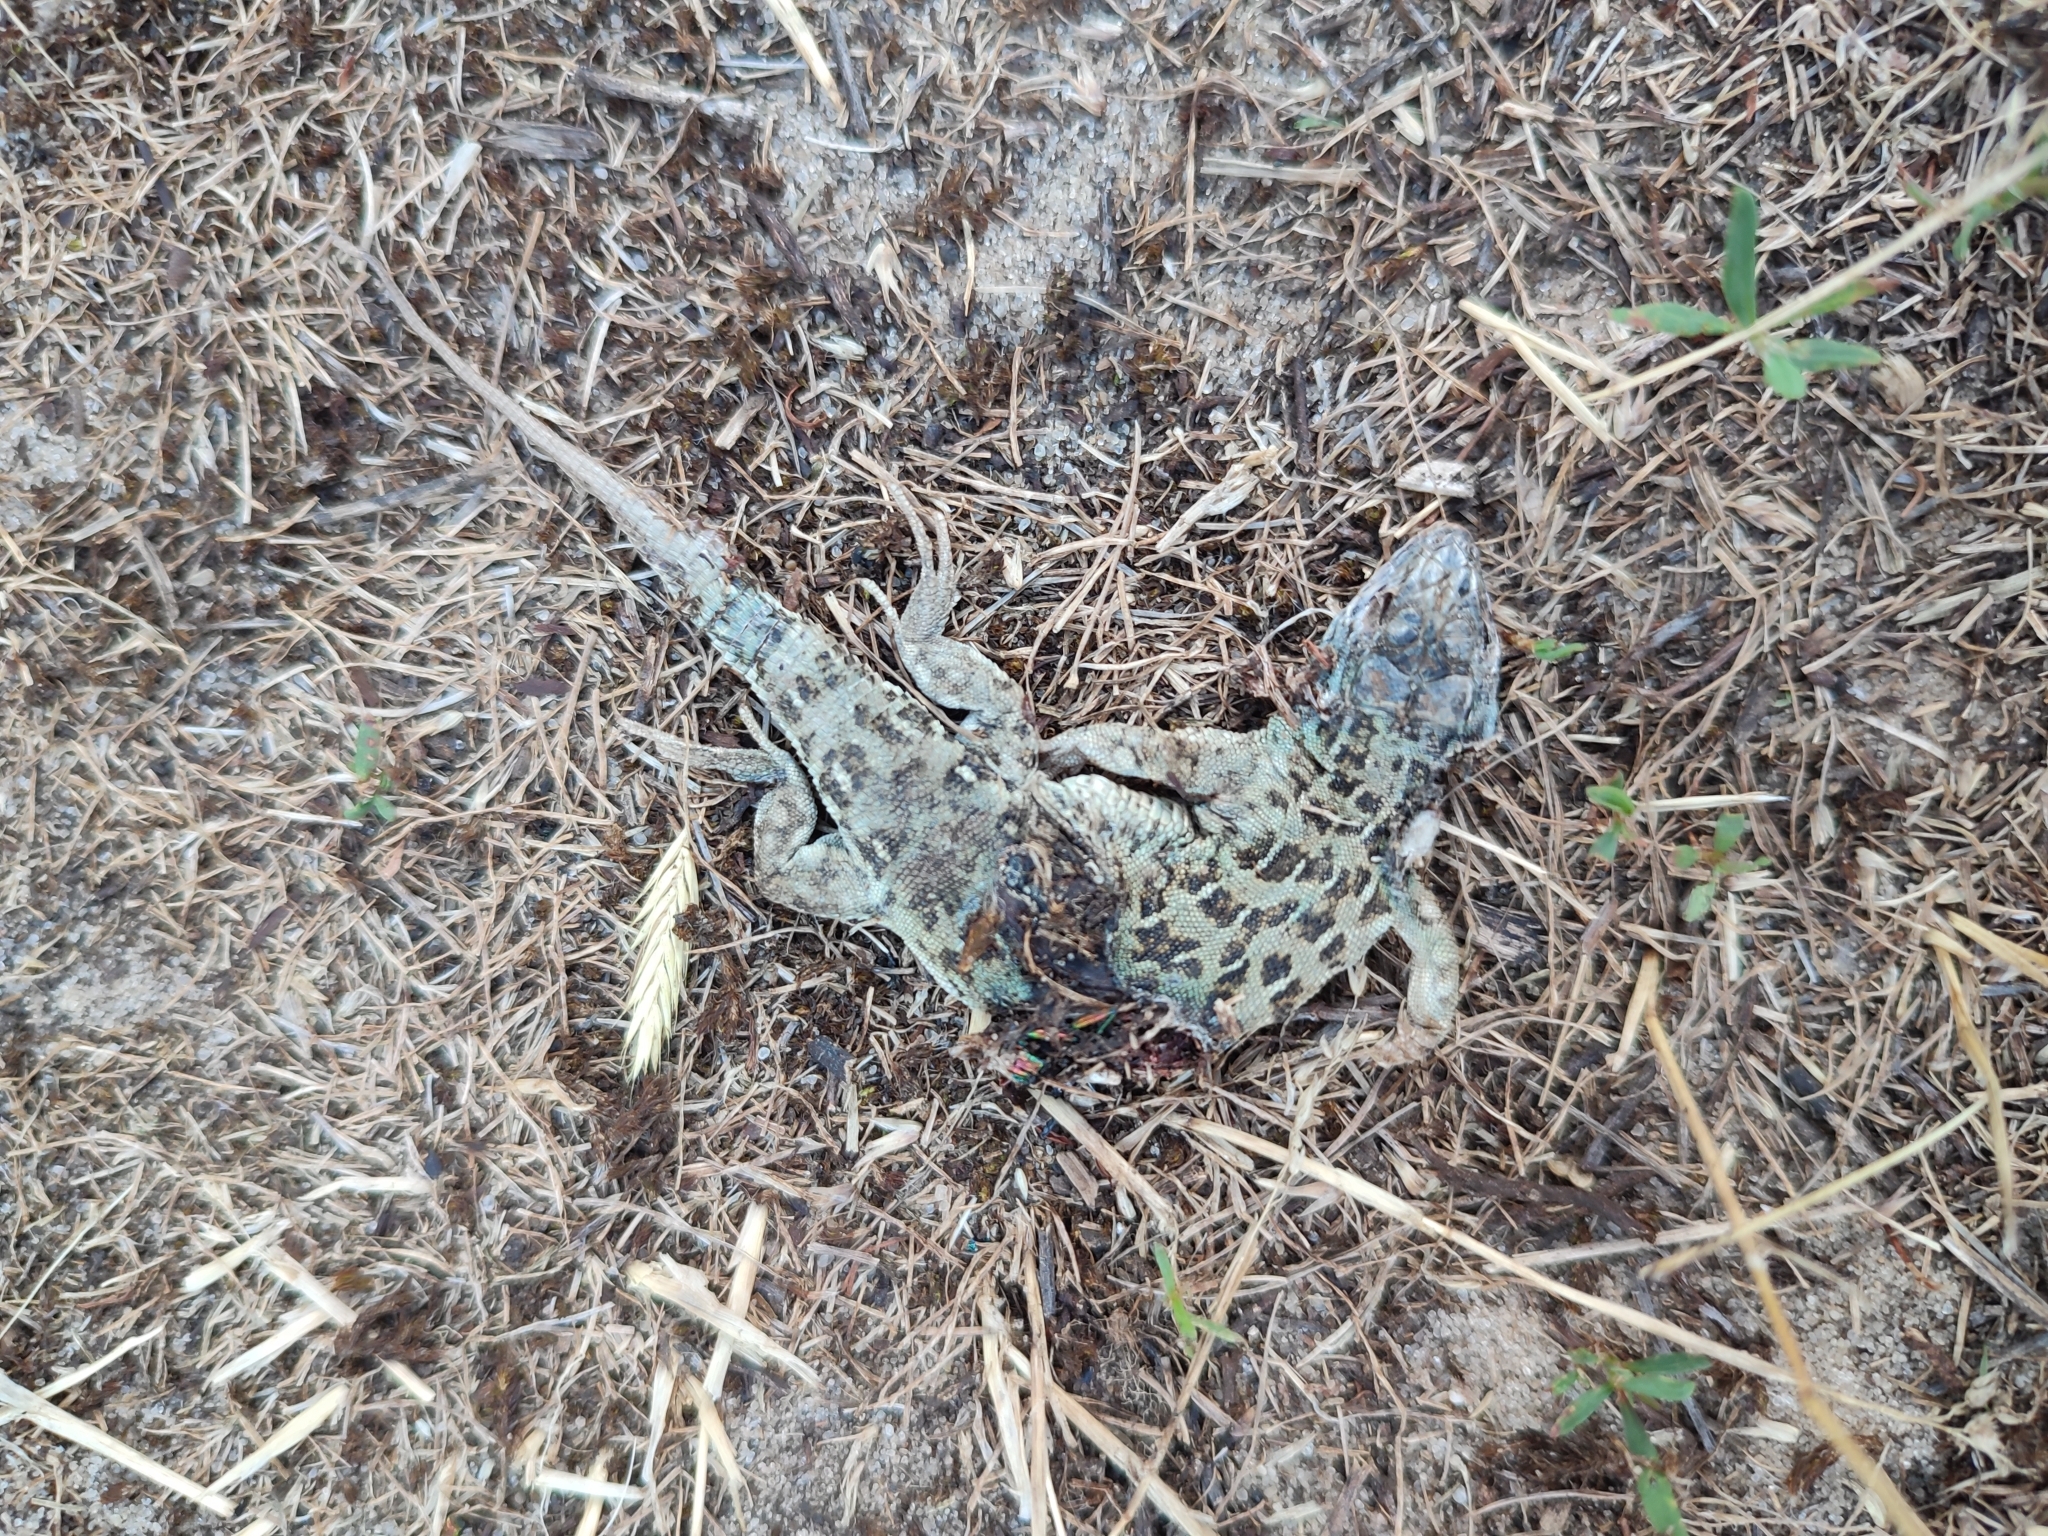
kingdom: Animalia
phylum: Chordata
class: Squamata
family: Lacertidae
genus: Eremias
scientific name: Eremias arguta
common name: Racerunner
